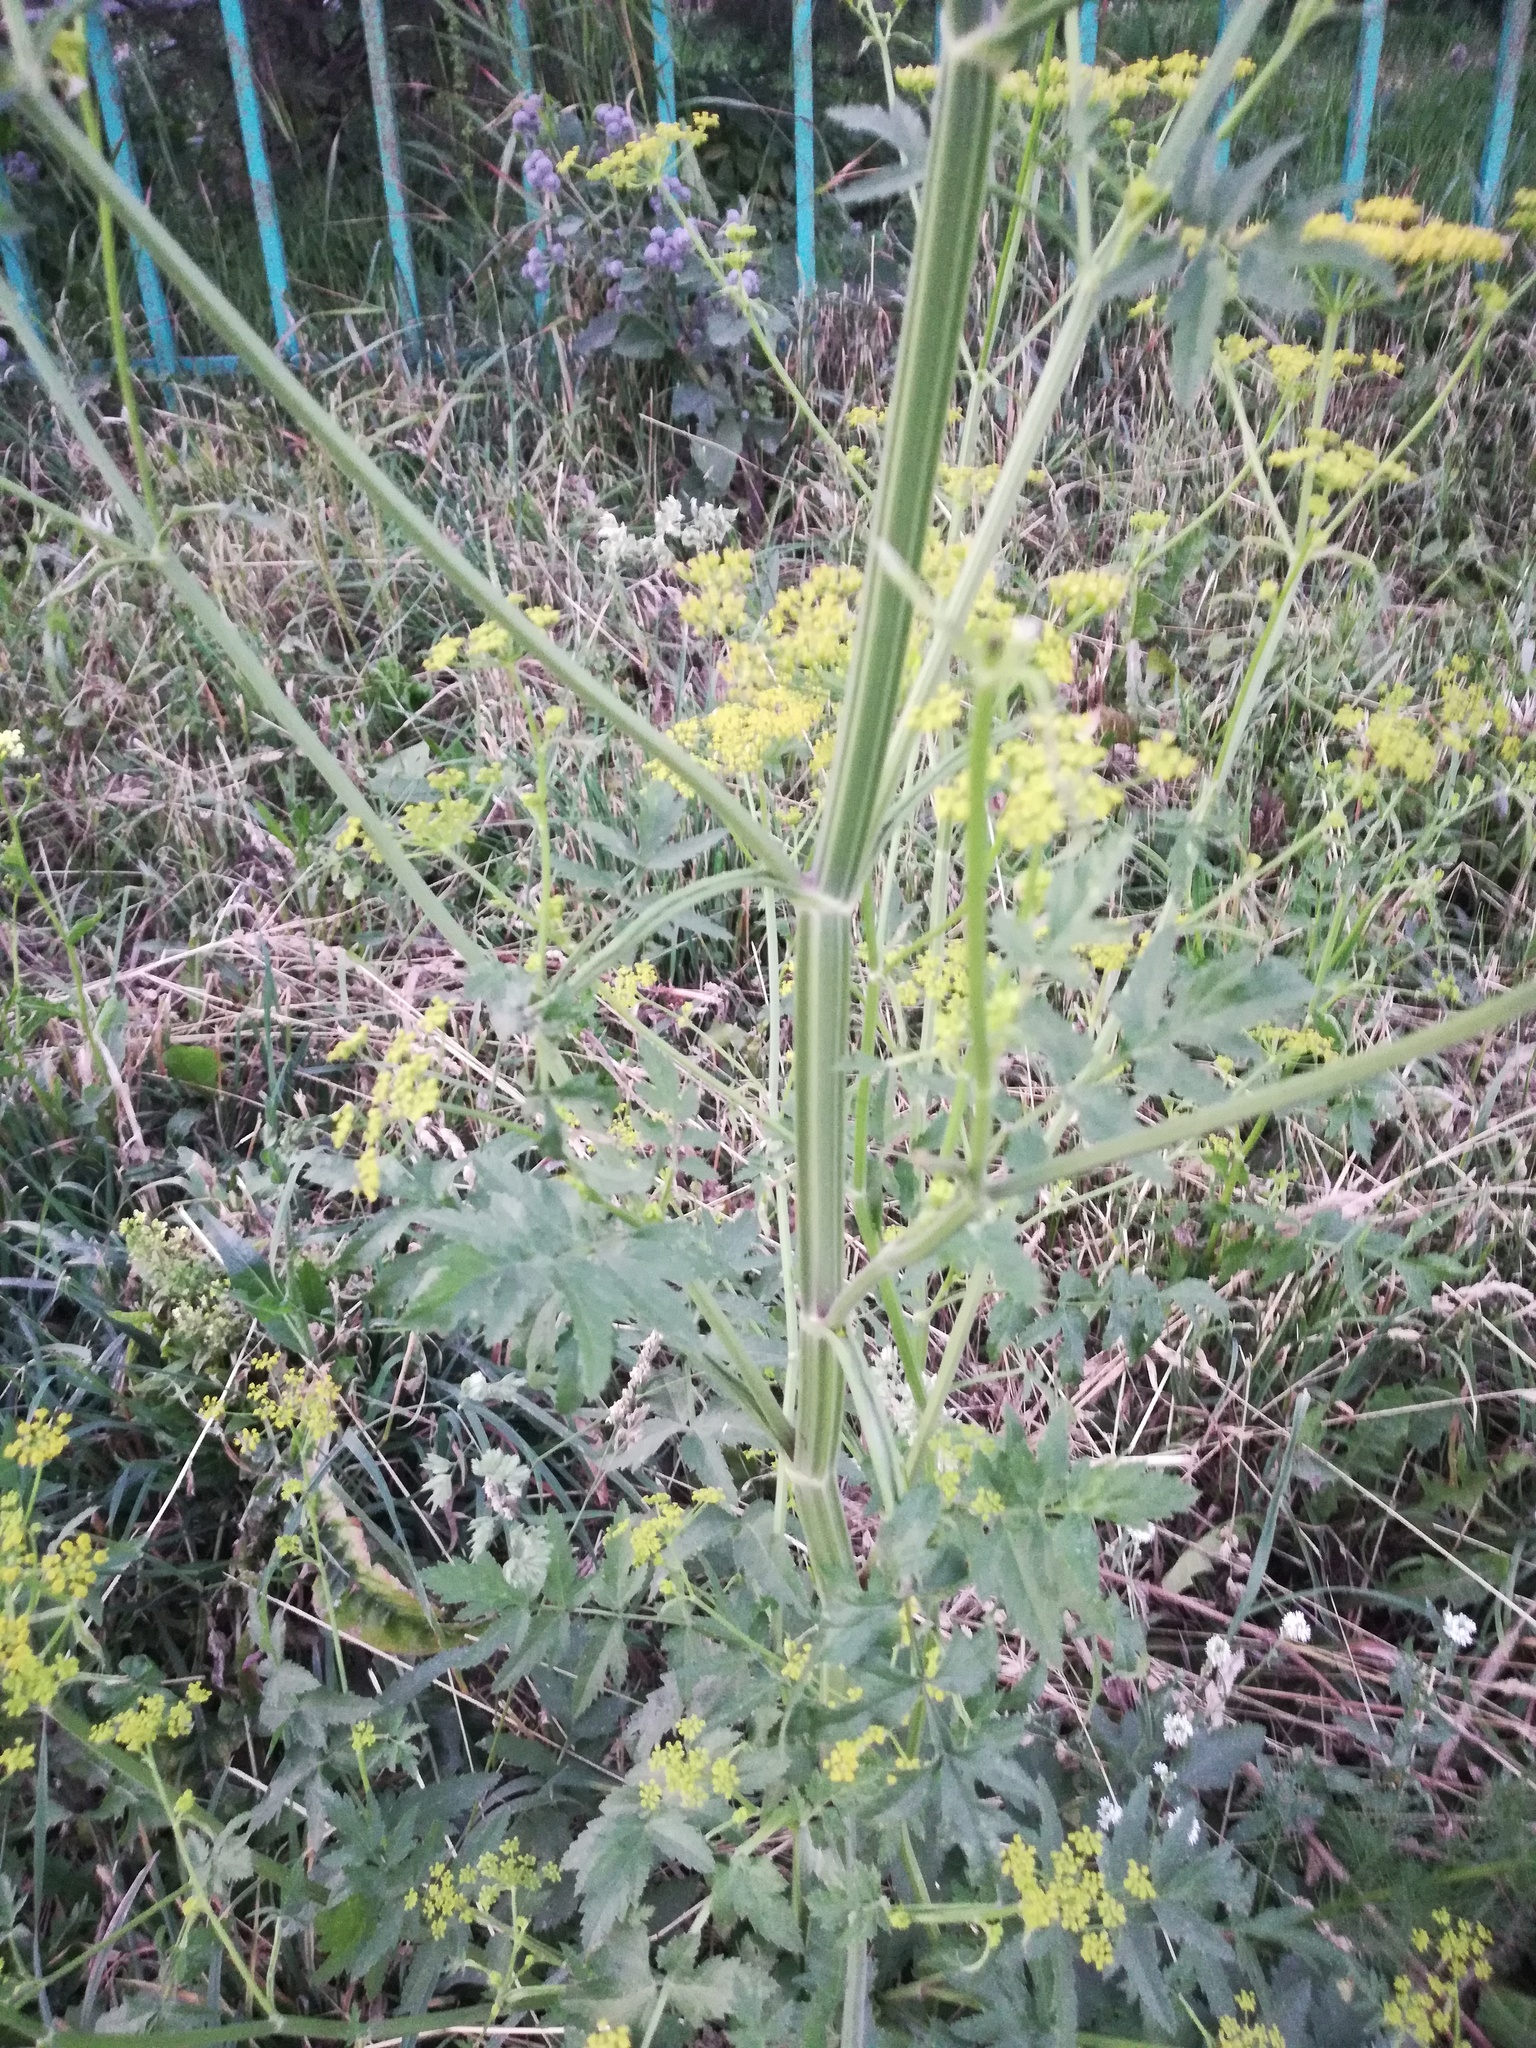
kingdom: Plantae
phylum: Tracheophyta
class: Magnoliopsida
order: Apiales
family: Apiaceae
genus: Pastinaca
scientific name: Pastinaca sativa
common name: Wild parsnip
